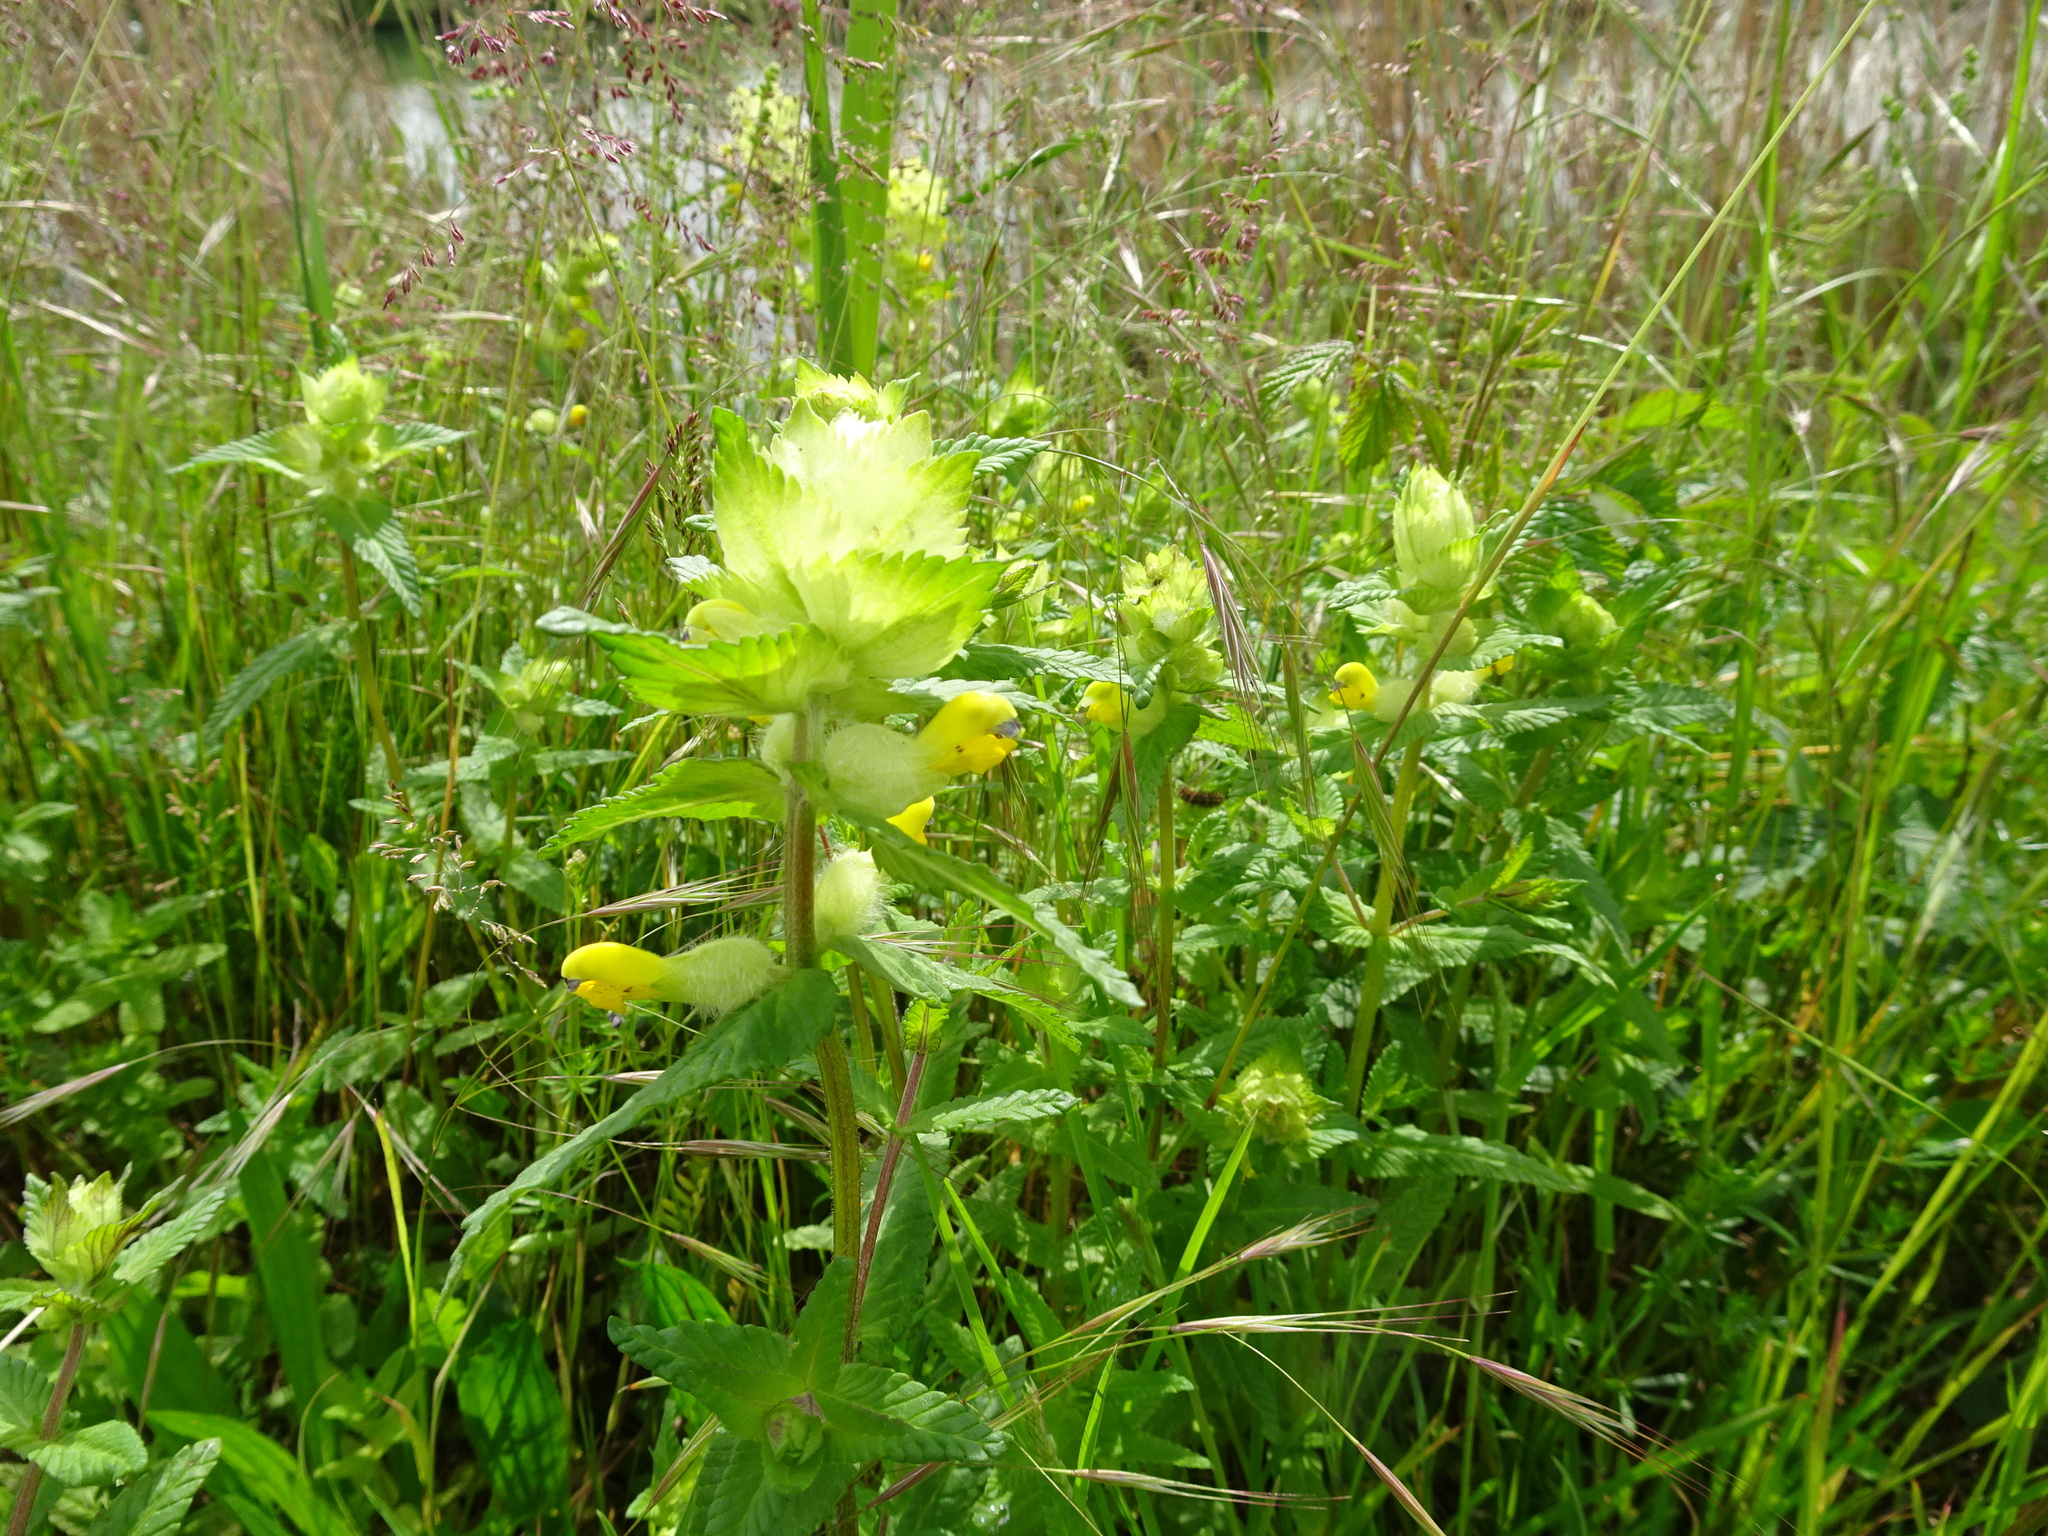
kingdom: Plantae
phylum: Tracheophyta
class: Magnoliopsida
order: Lamiales
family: Orobanchaceae
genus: Rhinanthus
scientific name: Rhinanthus alectorolophus
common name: Greater yellow-rattle
